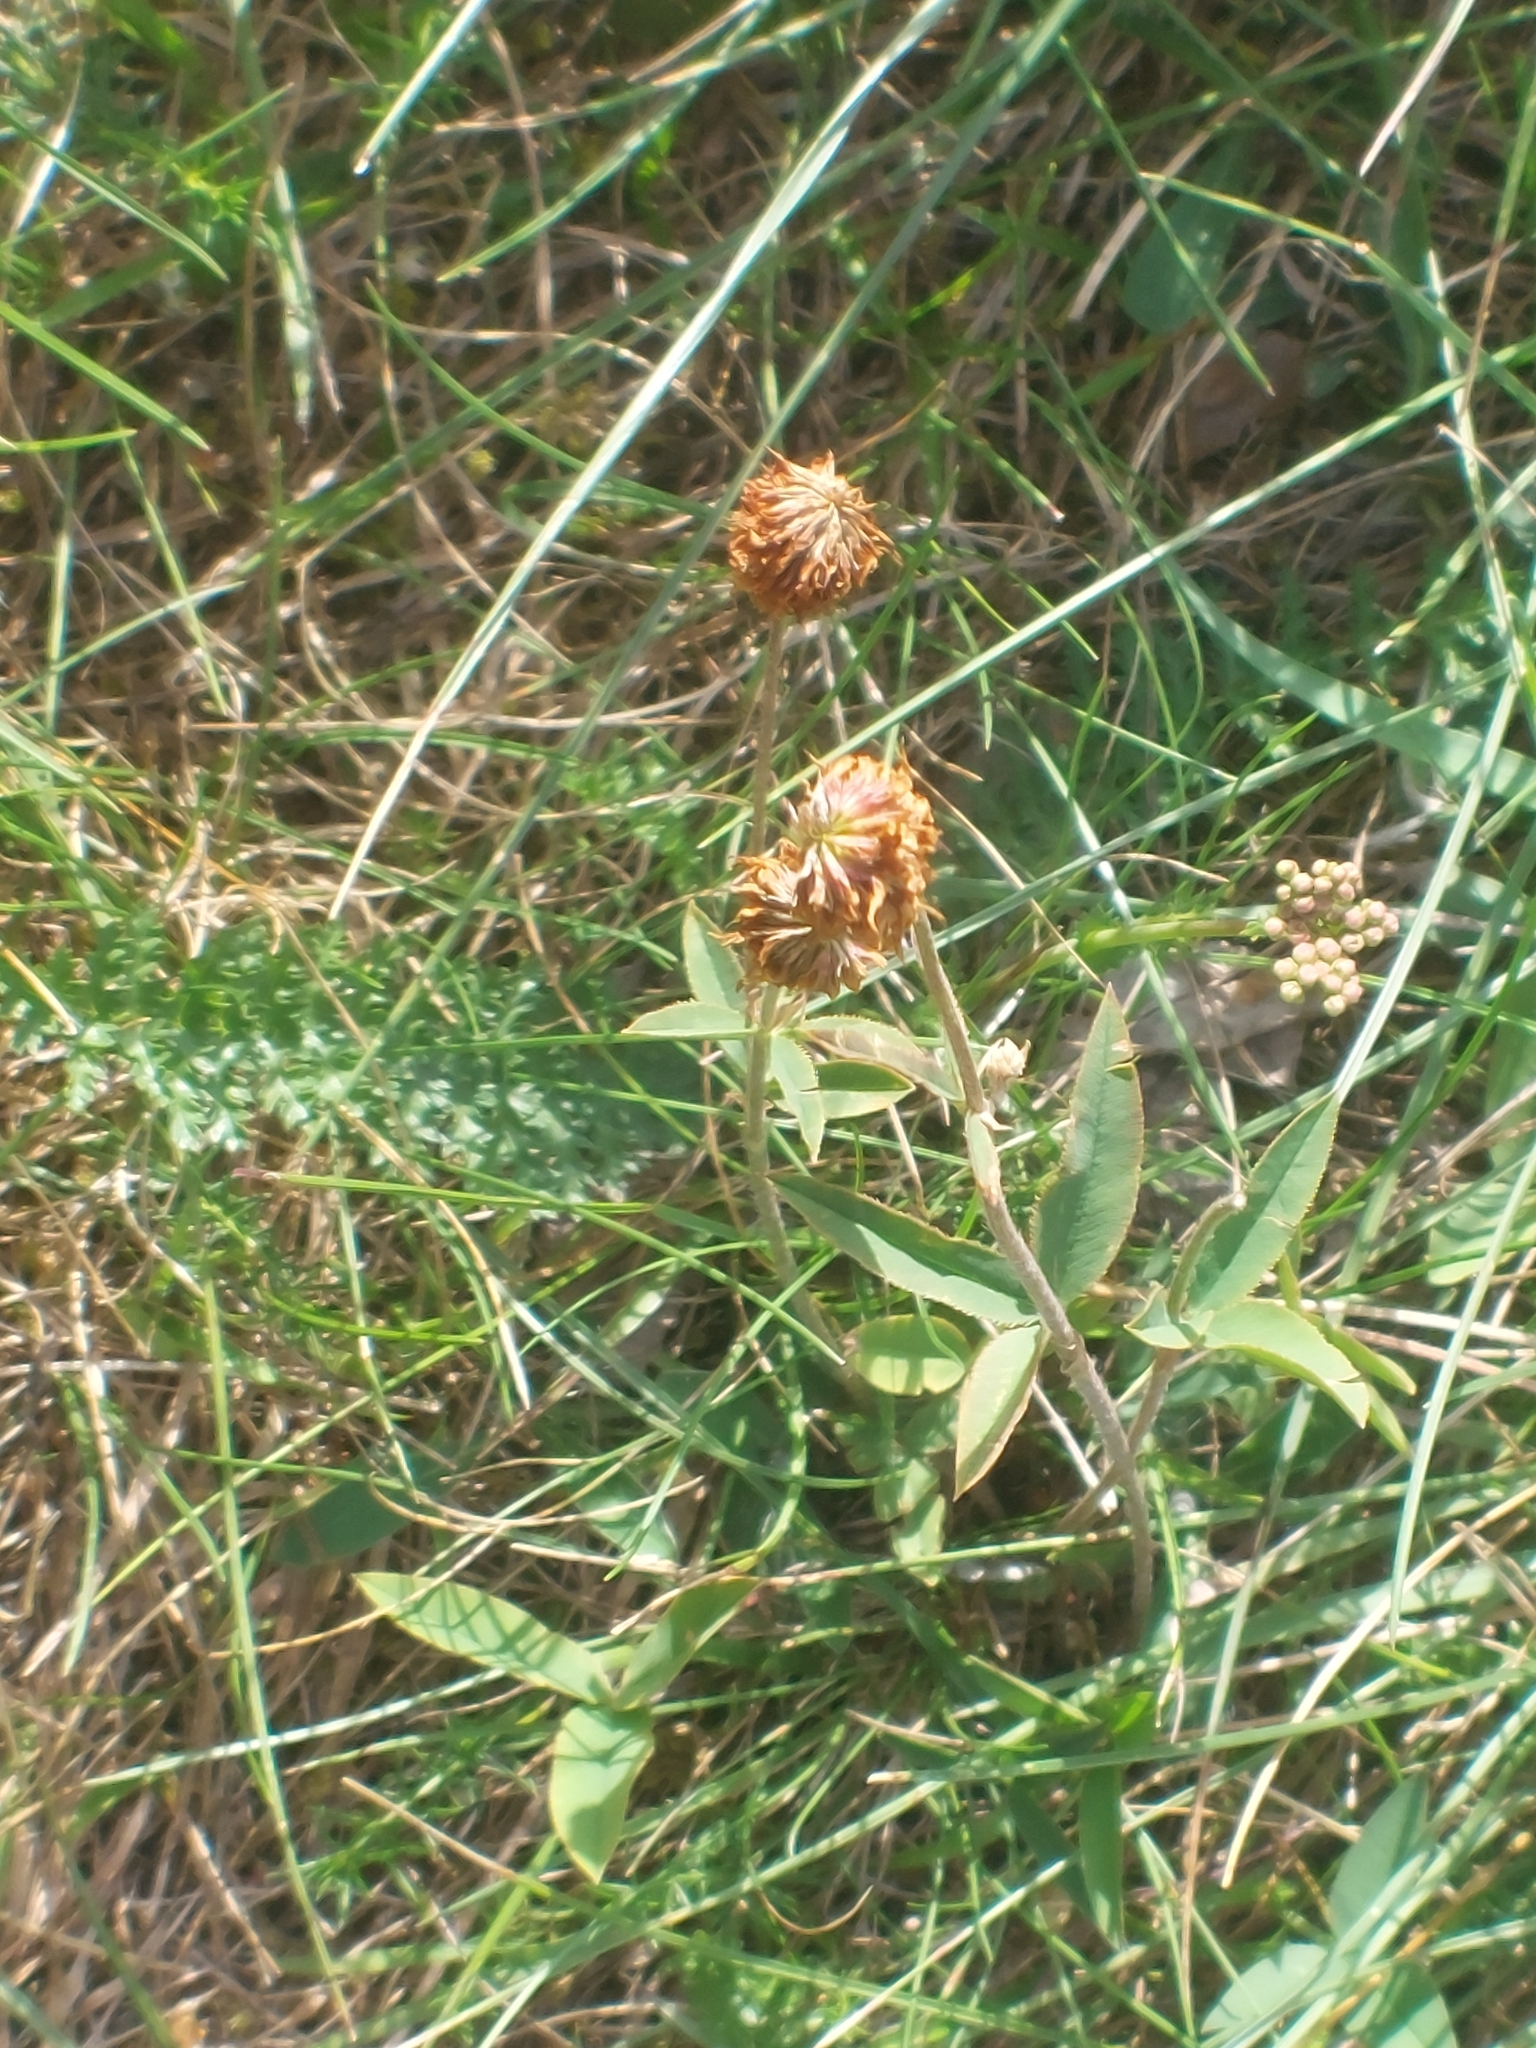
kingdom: Plantae
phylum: Tracheophyta
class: Magnoliopsida
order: Fabales
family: Fabaceae
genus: Trifolium
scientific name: Trifolium montanum
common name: Mountain clover
